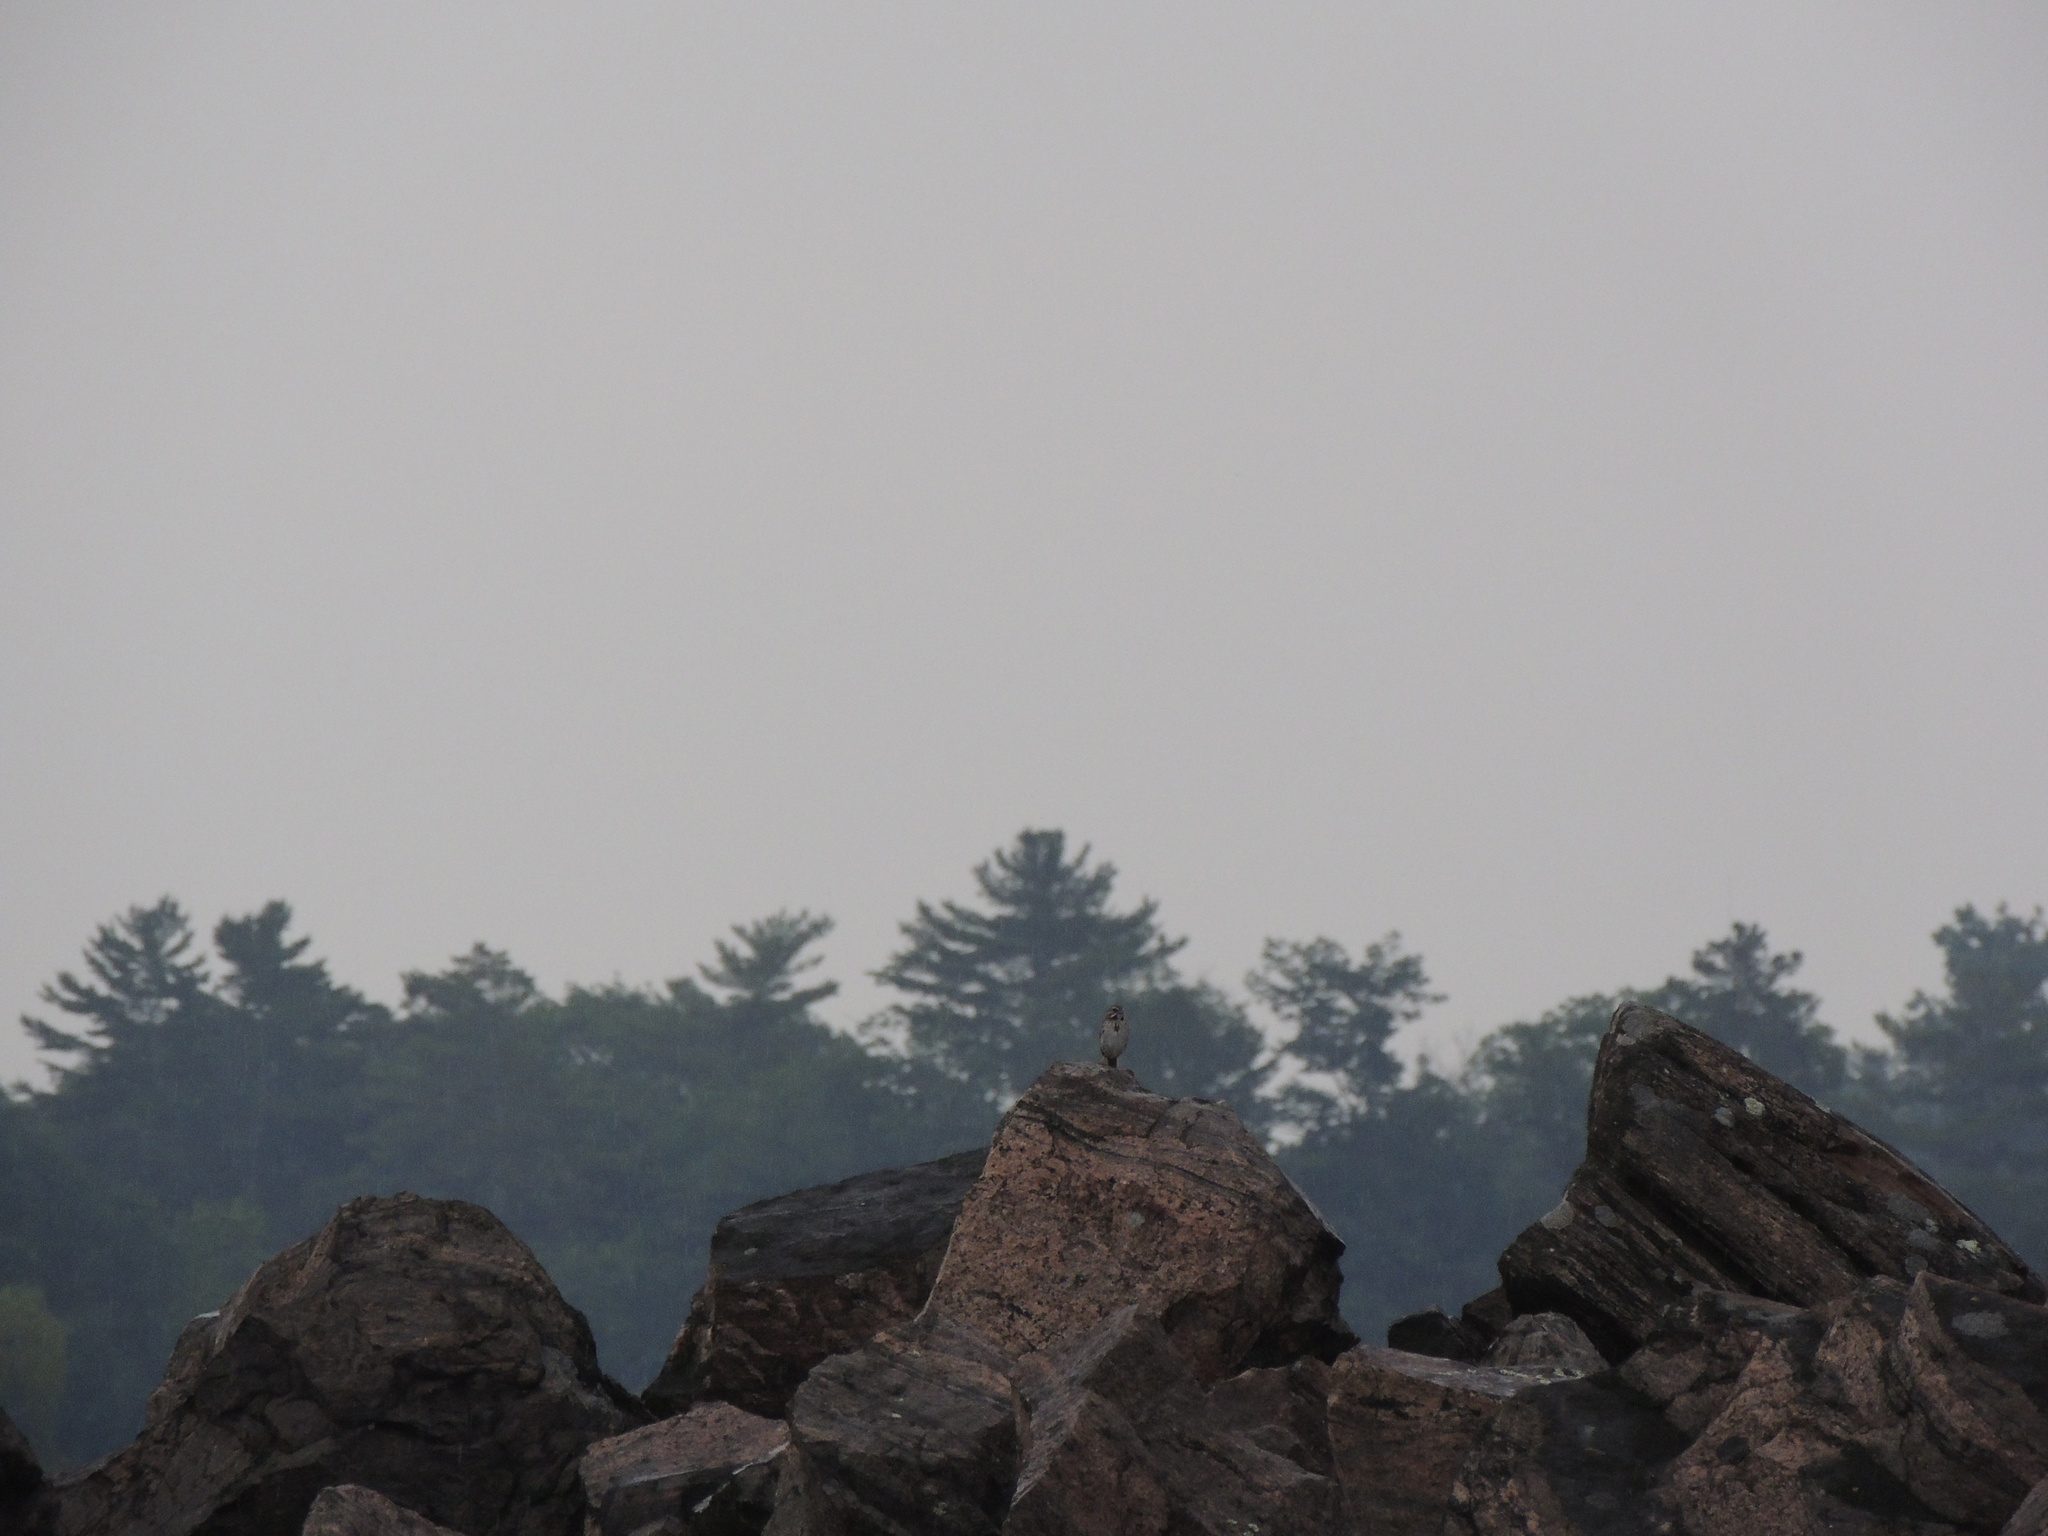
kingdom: Animalia
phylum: Chordata
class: Aves
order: Passeriformes
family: Passerellidae
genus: Melospiza
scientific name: Melospiza melodia
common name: Song sparrow
